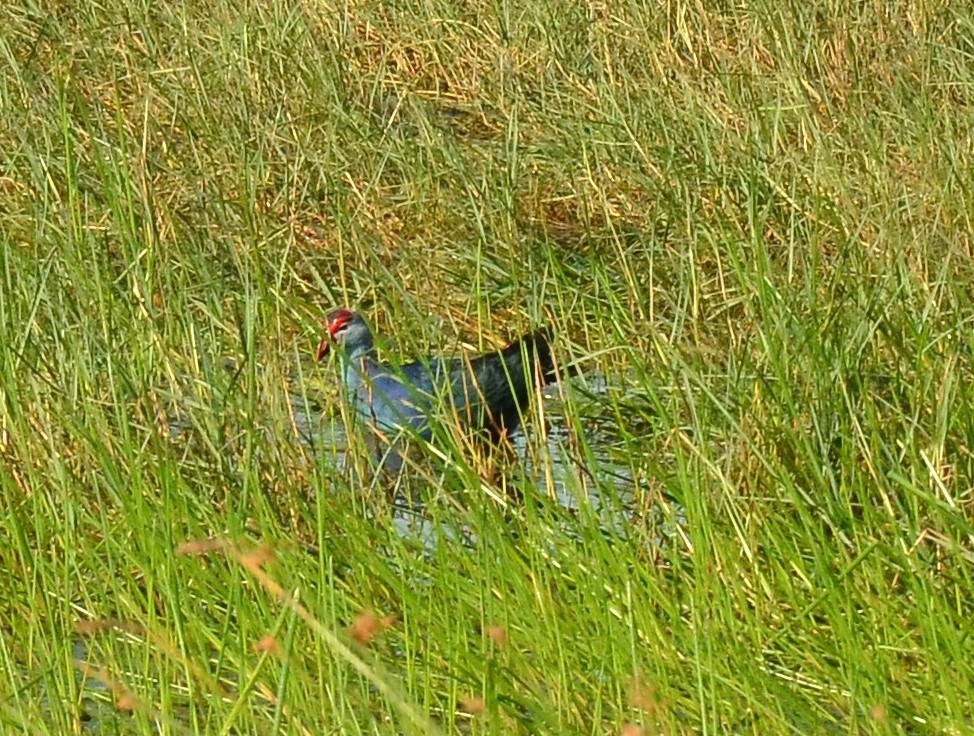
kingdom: Animalia
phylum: Chordata
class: Aves
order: Gruiformes
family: Rallidae
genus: Porphyrio
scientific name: Porphyrio porphyrio
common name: Purple swamphen
